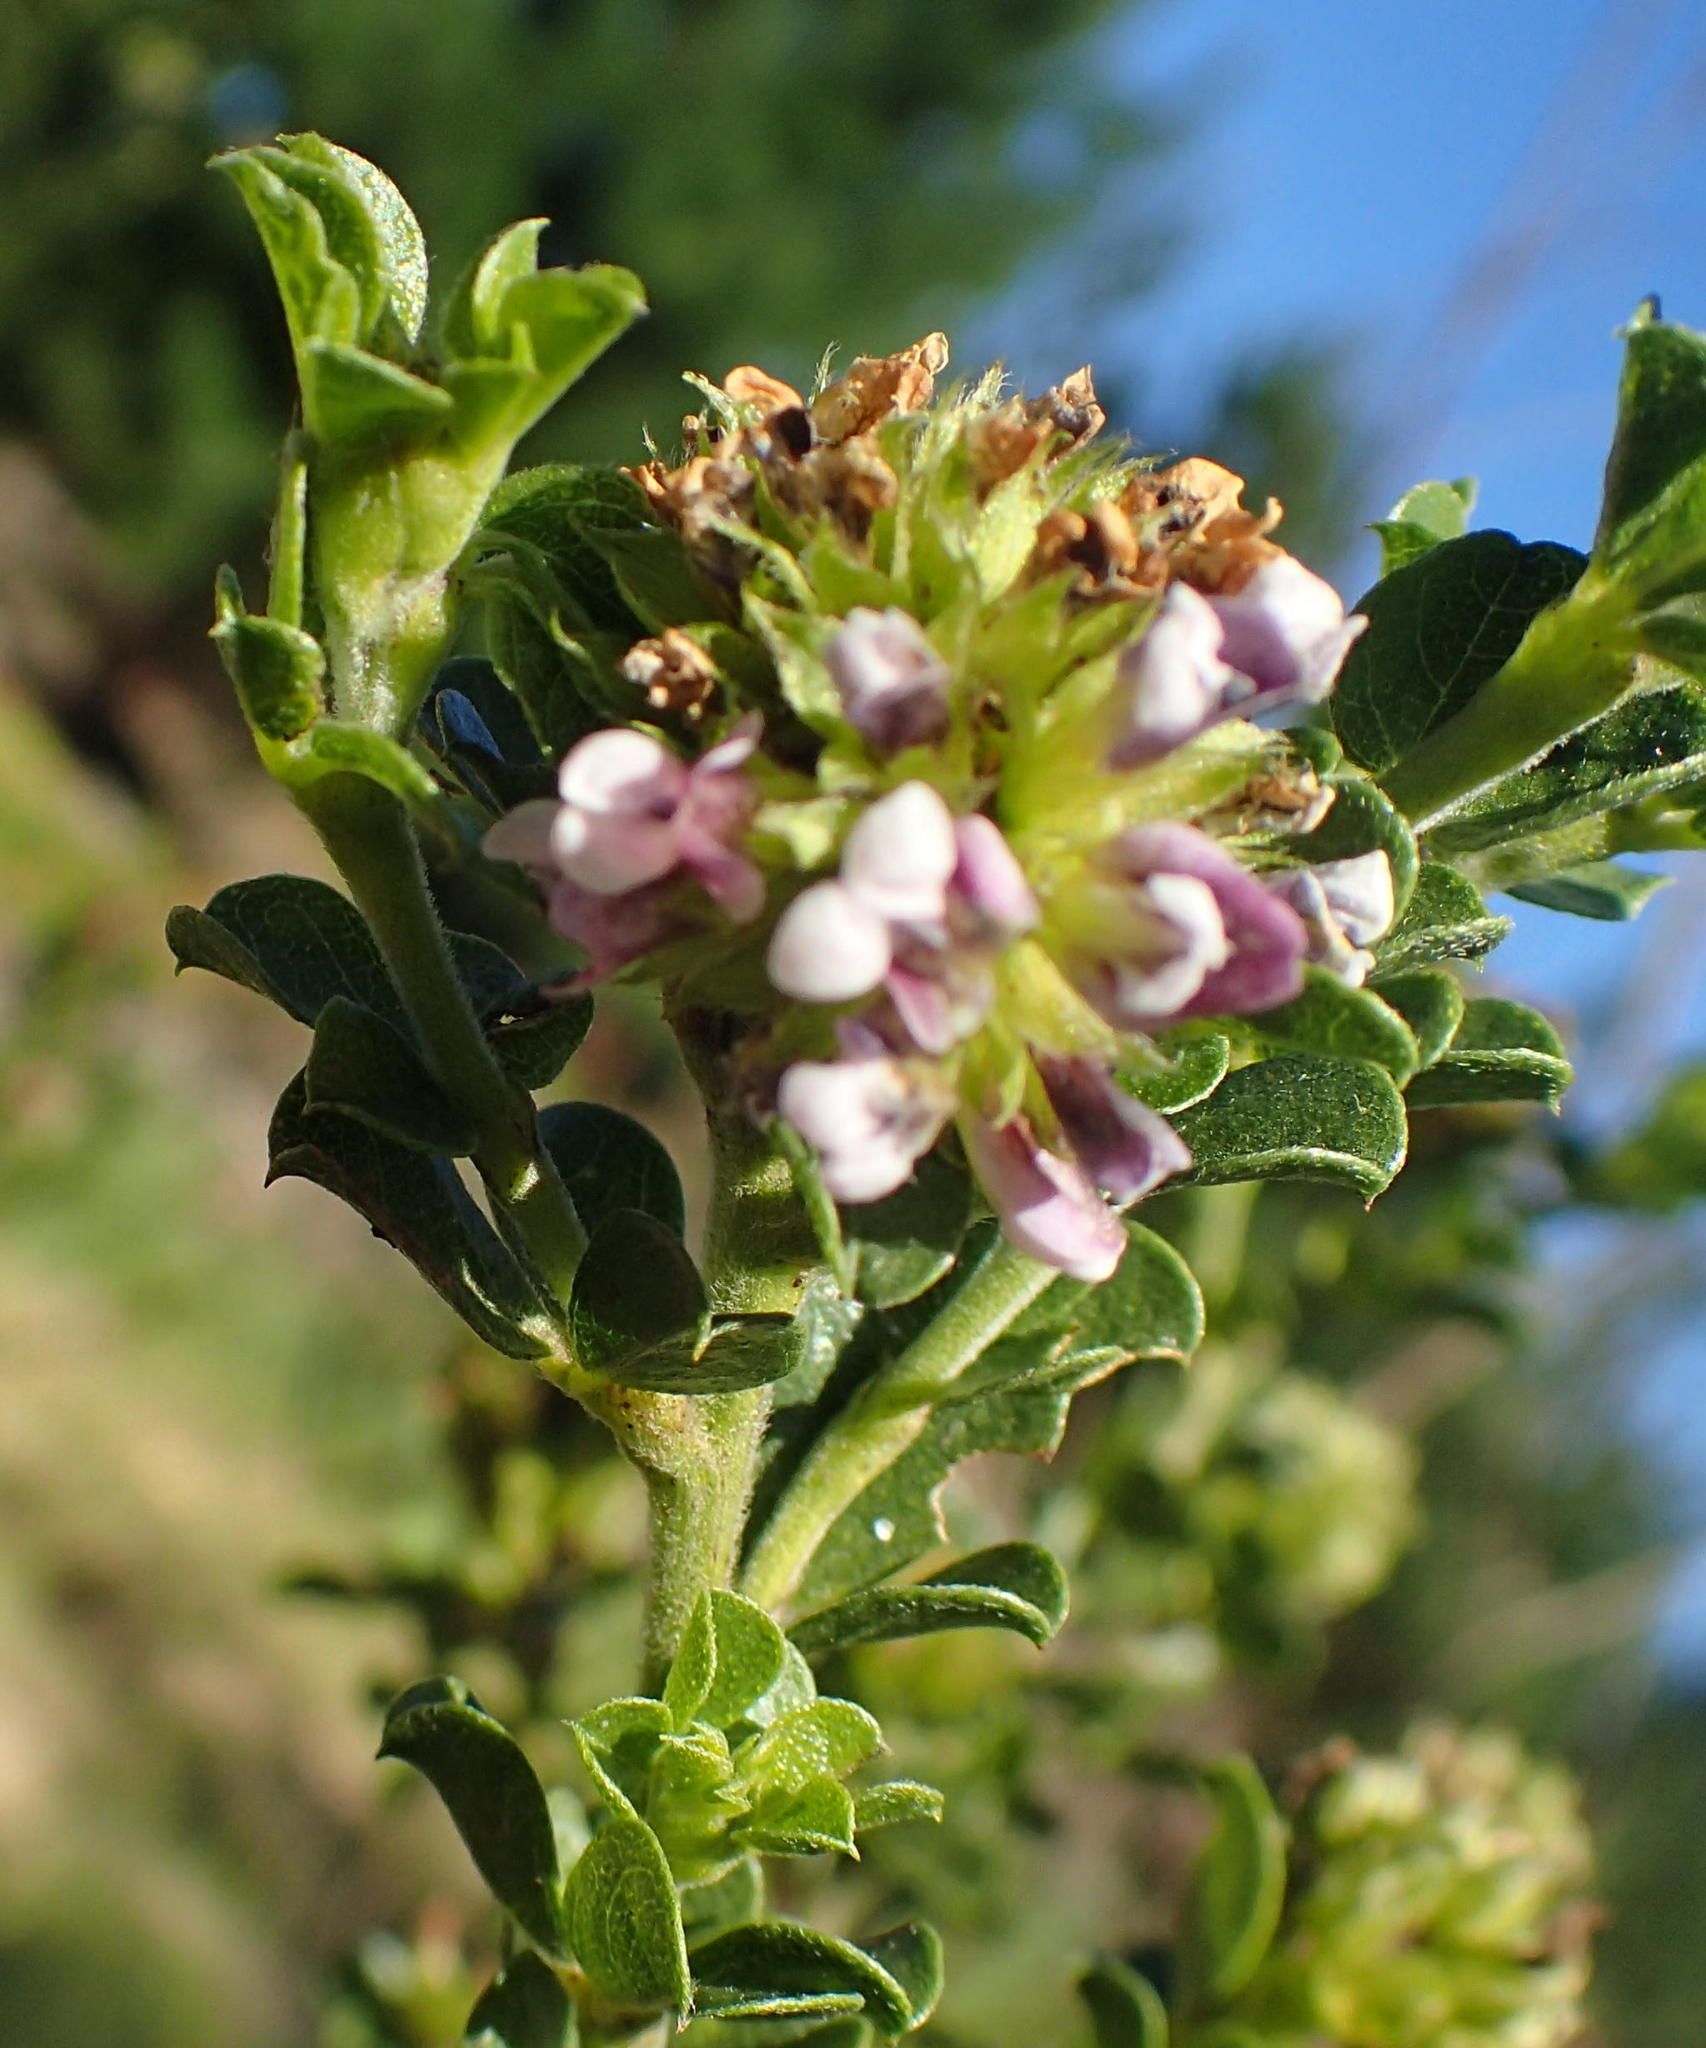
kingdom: Plantae
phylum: Tracheophyta
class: Magnoliopsida
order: Fabales
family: Fabaceae
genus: Psoralea
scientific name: Psoralea stachyera
